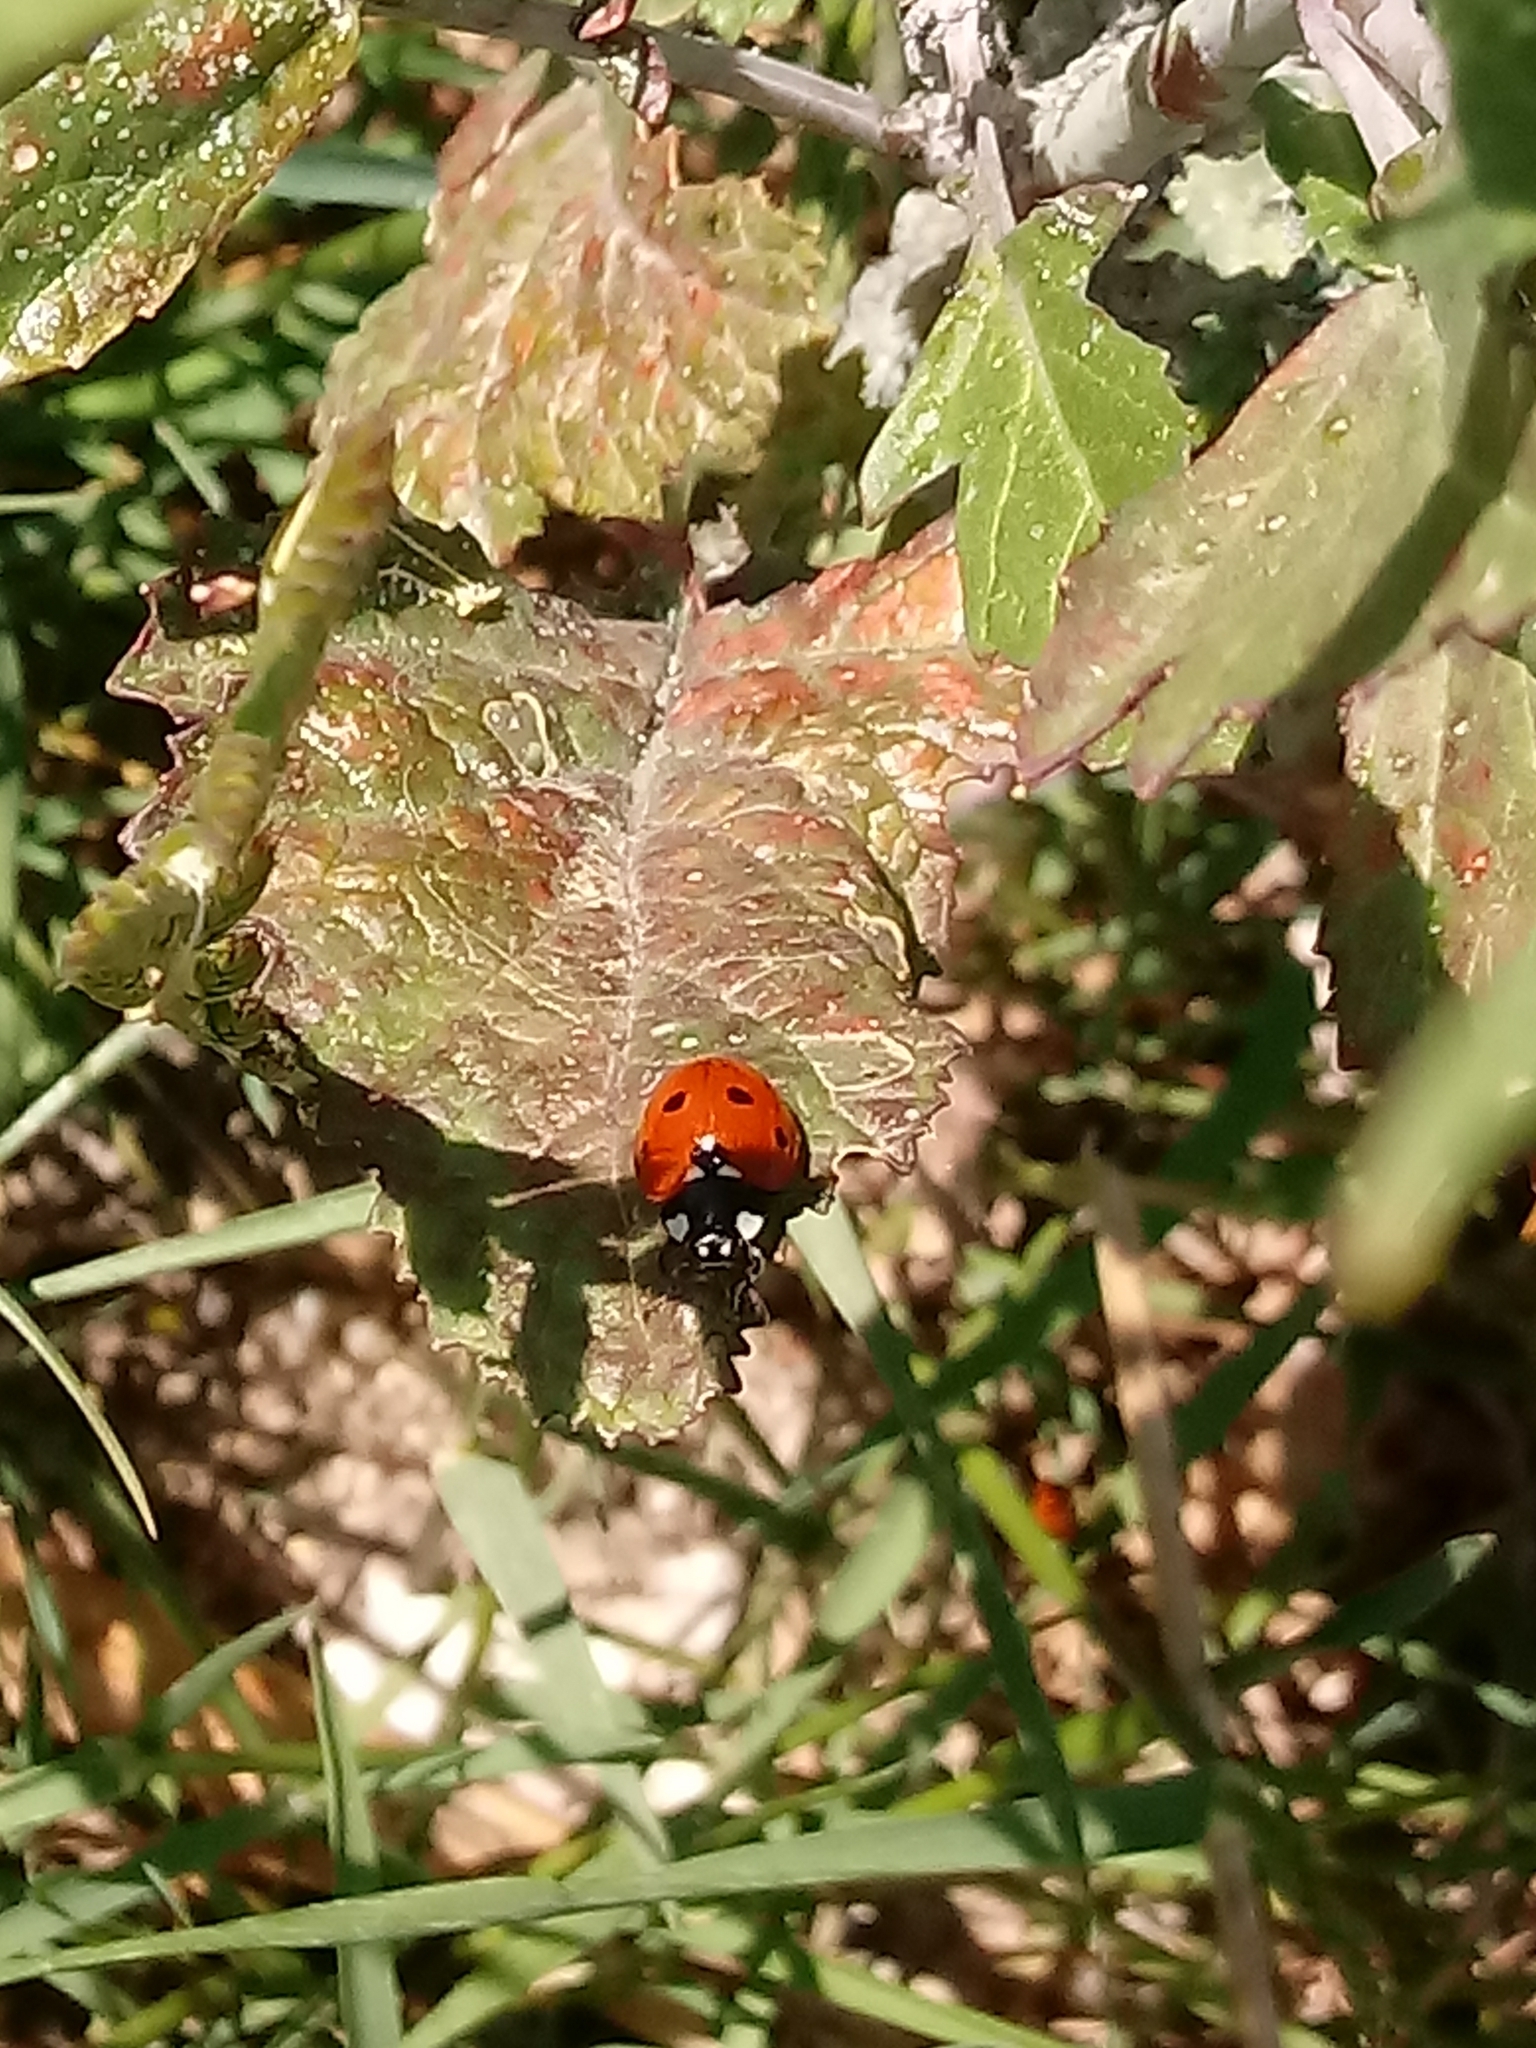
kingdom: Animalia
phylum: Arthropoda
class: Insecta
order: Coleoptera
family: Coccinellidae
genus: Coccinella
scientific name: Coccinella septempunctata
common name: Sevenspotted lady beetle
